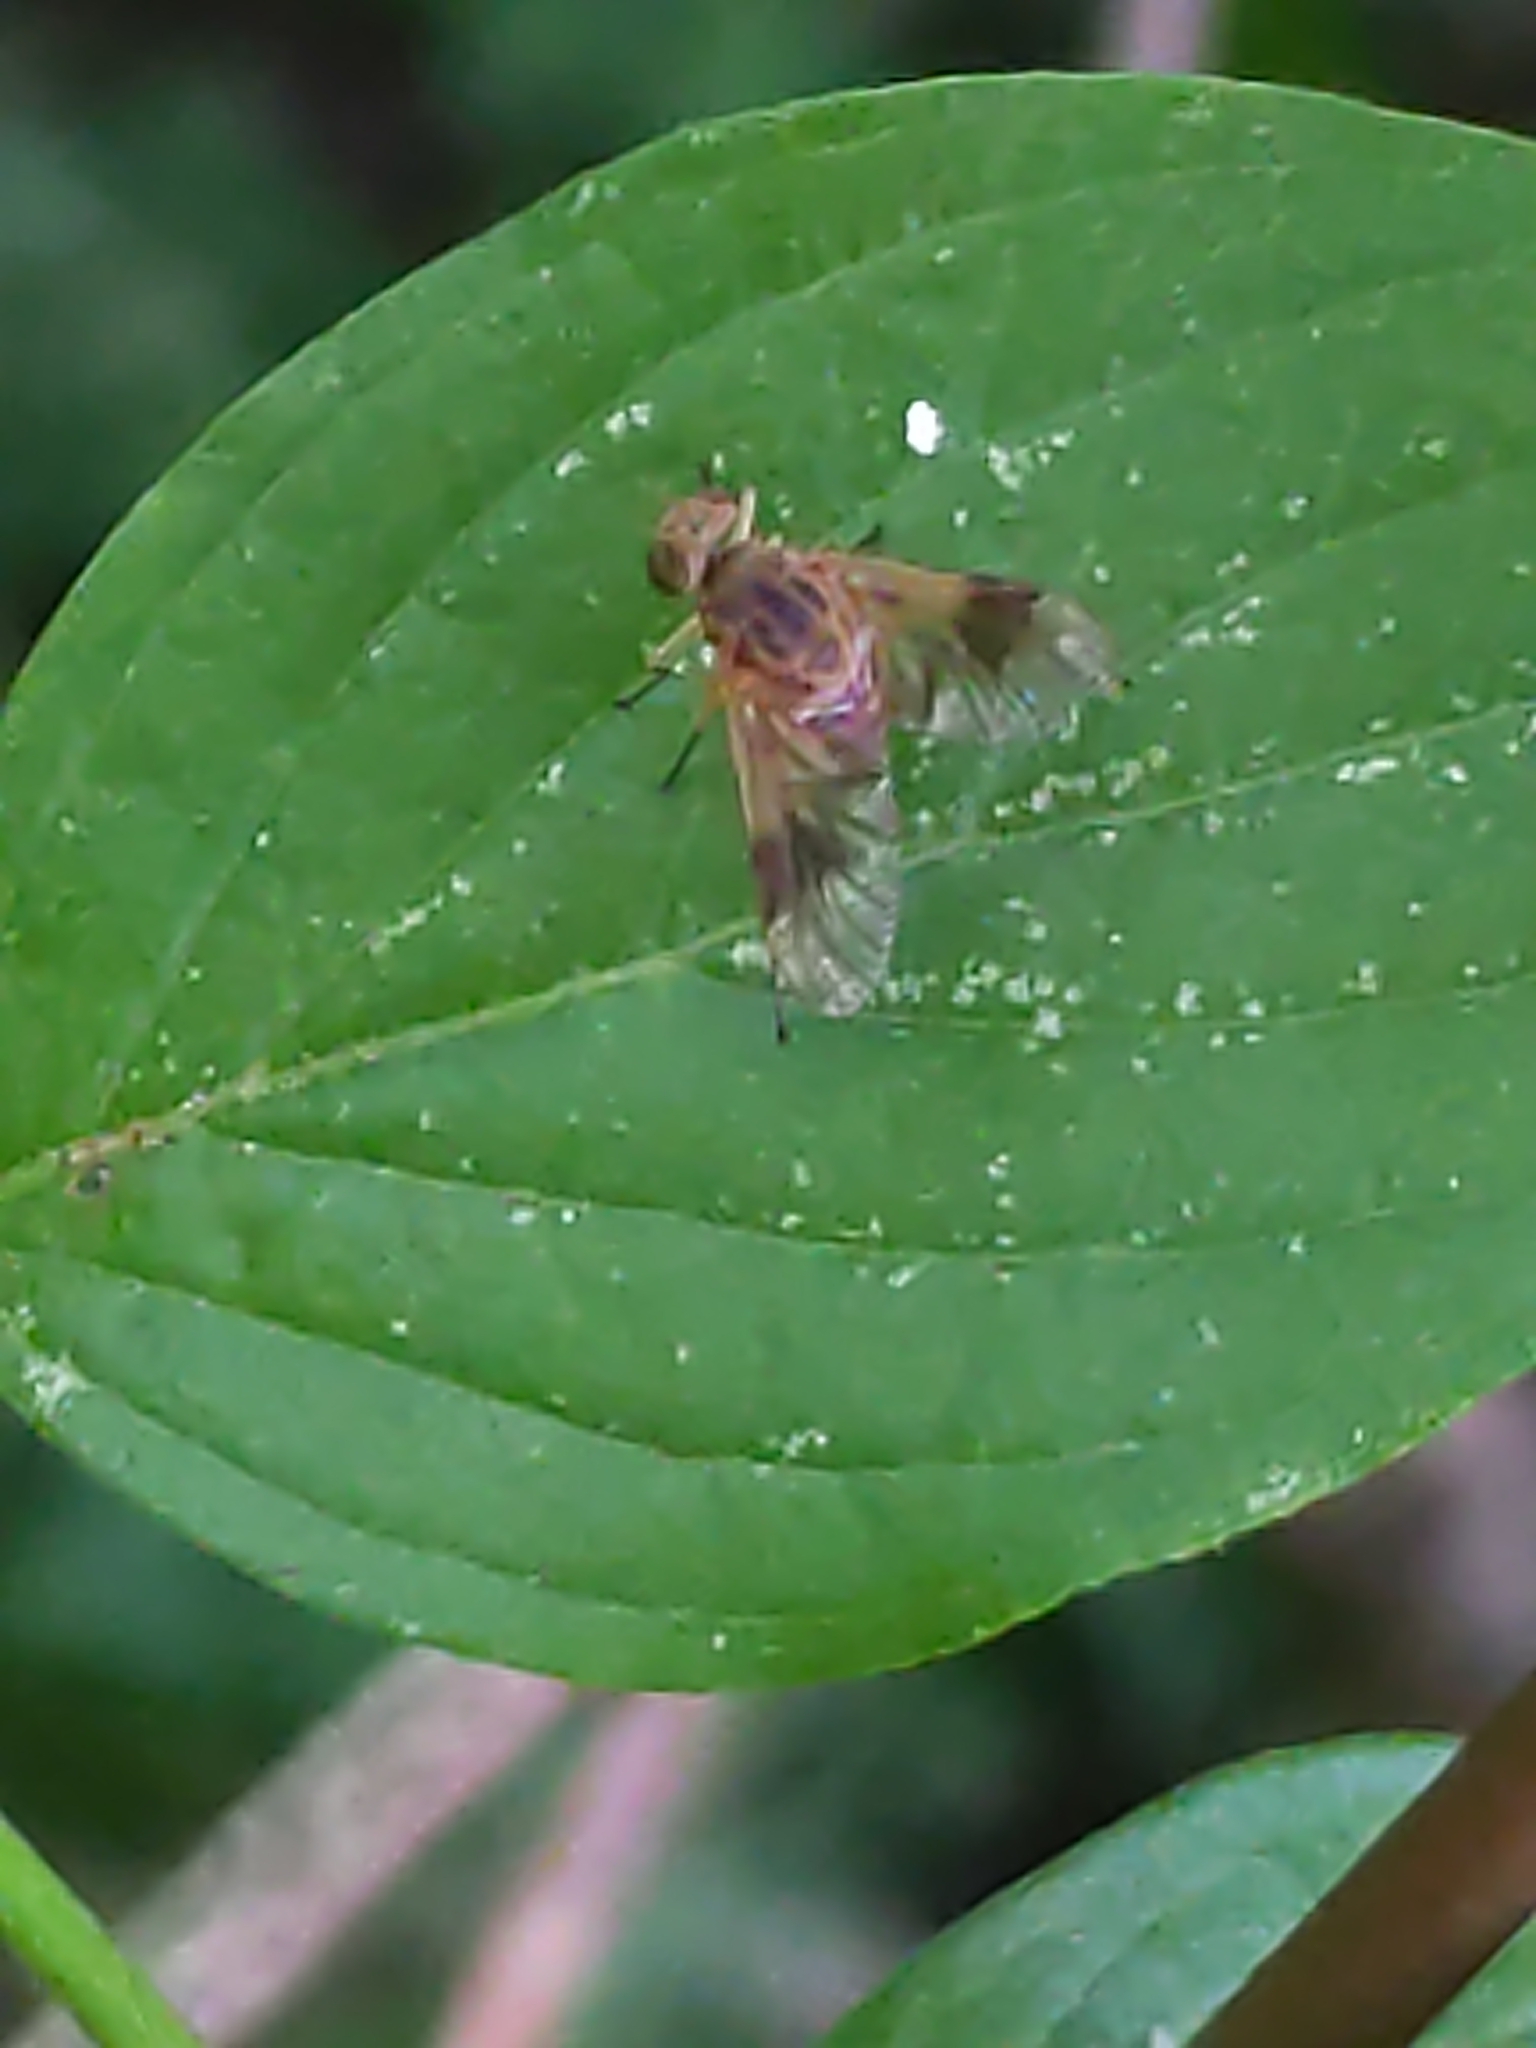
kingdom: Animalia
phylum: Arthropoda
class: Insecta
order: Diptera
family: Rhagionidae
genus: Chrysopilus
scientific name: Chrysopilus quadratus
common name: Quadrate snipe fly
